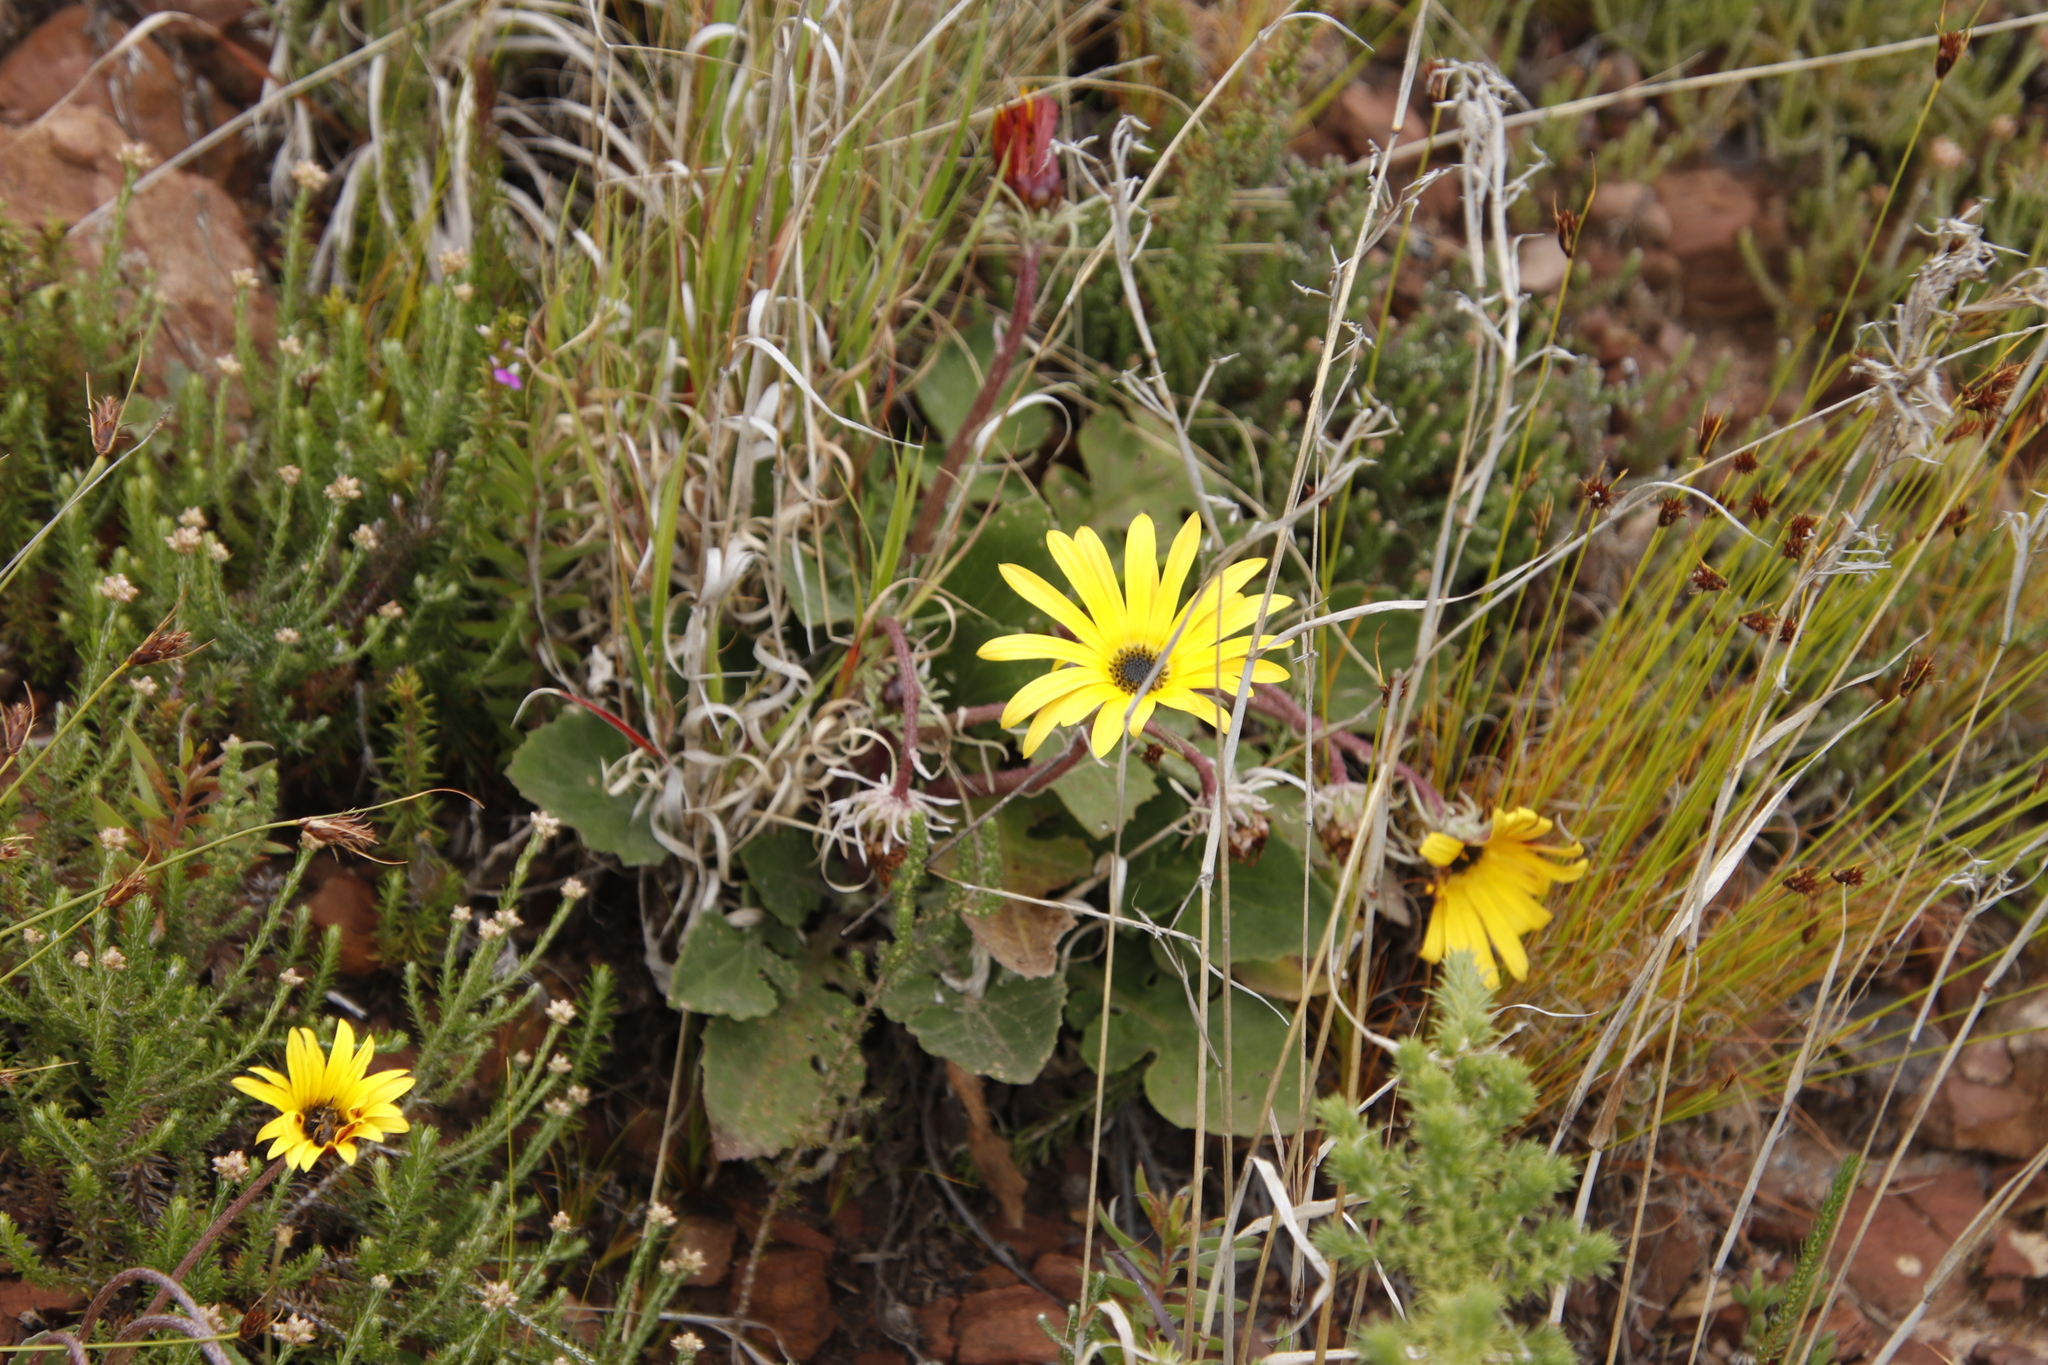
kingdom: Plantae
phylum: Tracheophyta
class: Magnoliopsida
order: Asterales
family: Asteraceae
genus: Arctotis
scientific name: Arctotis acaulis
